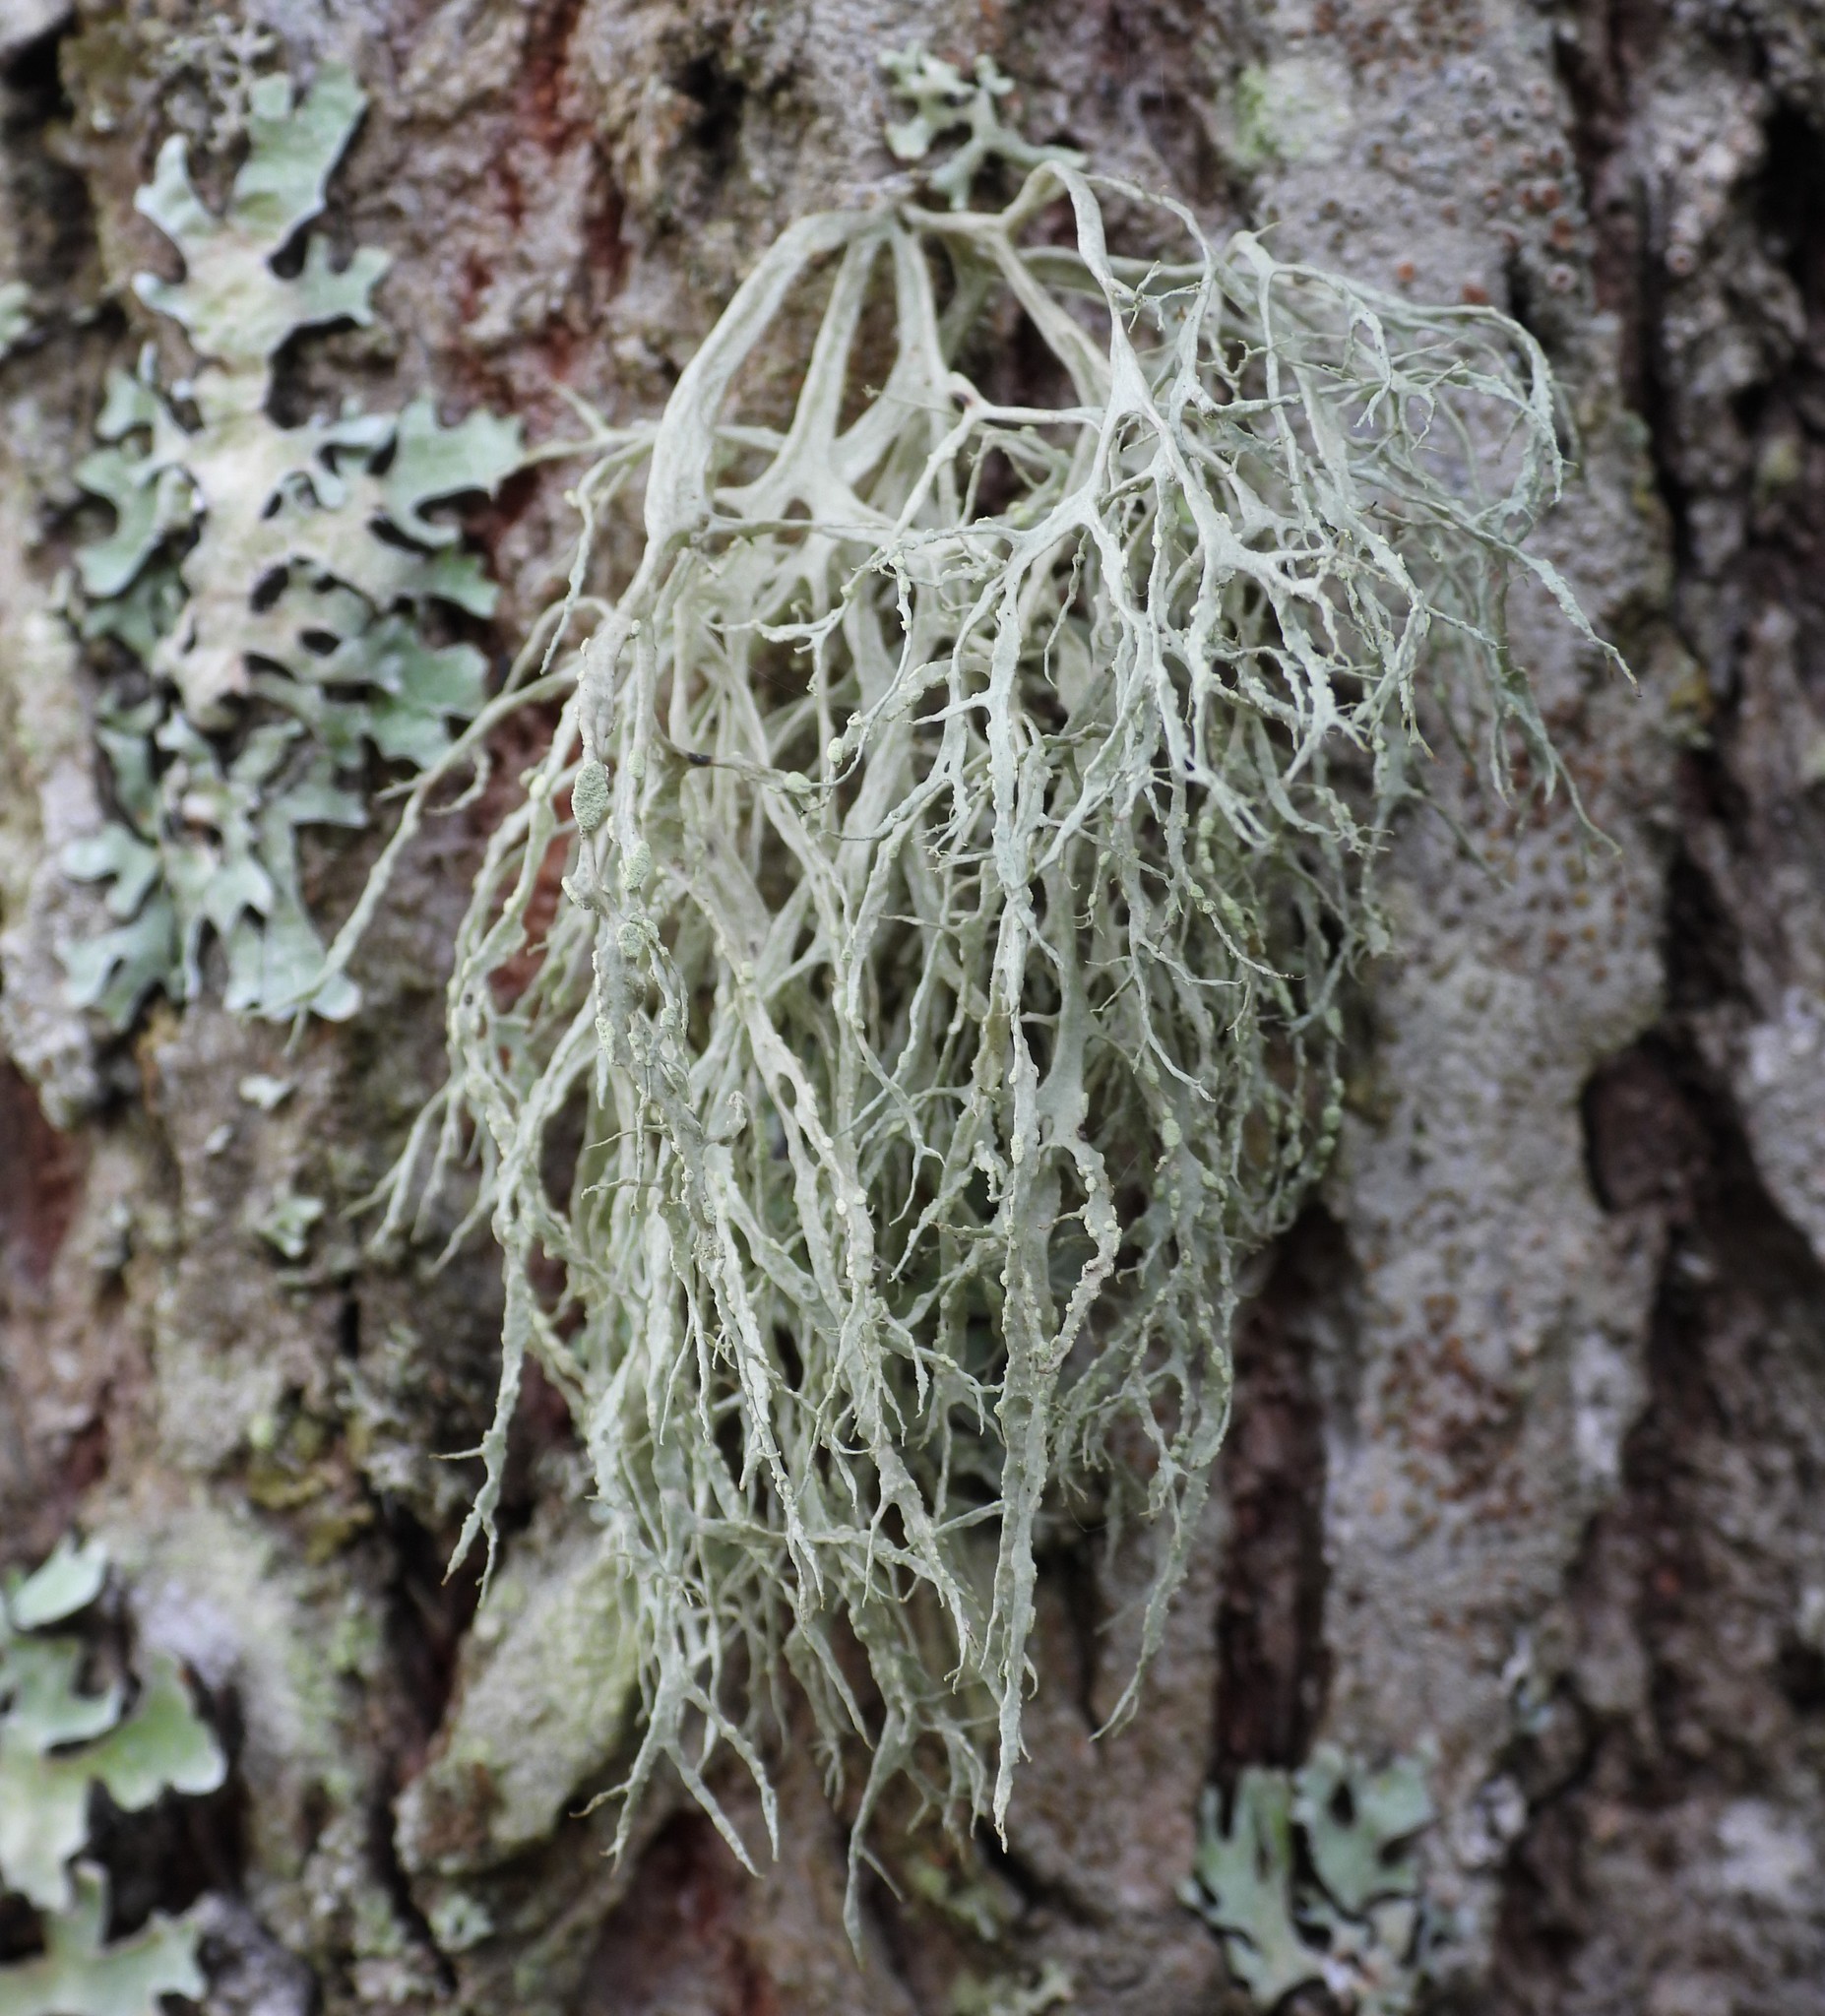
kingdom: Fungi
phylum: Ascomycota
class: Lecanoromycetes
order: Lecanorales
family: Ramalinaceae
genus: Ramalina
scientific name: Ramalina farinacea
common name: Farinose cartilage lichen
